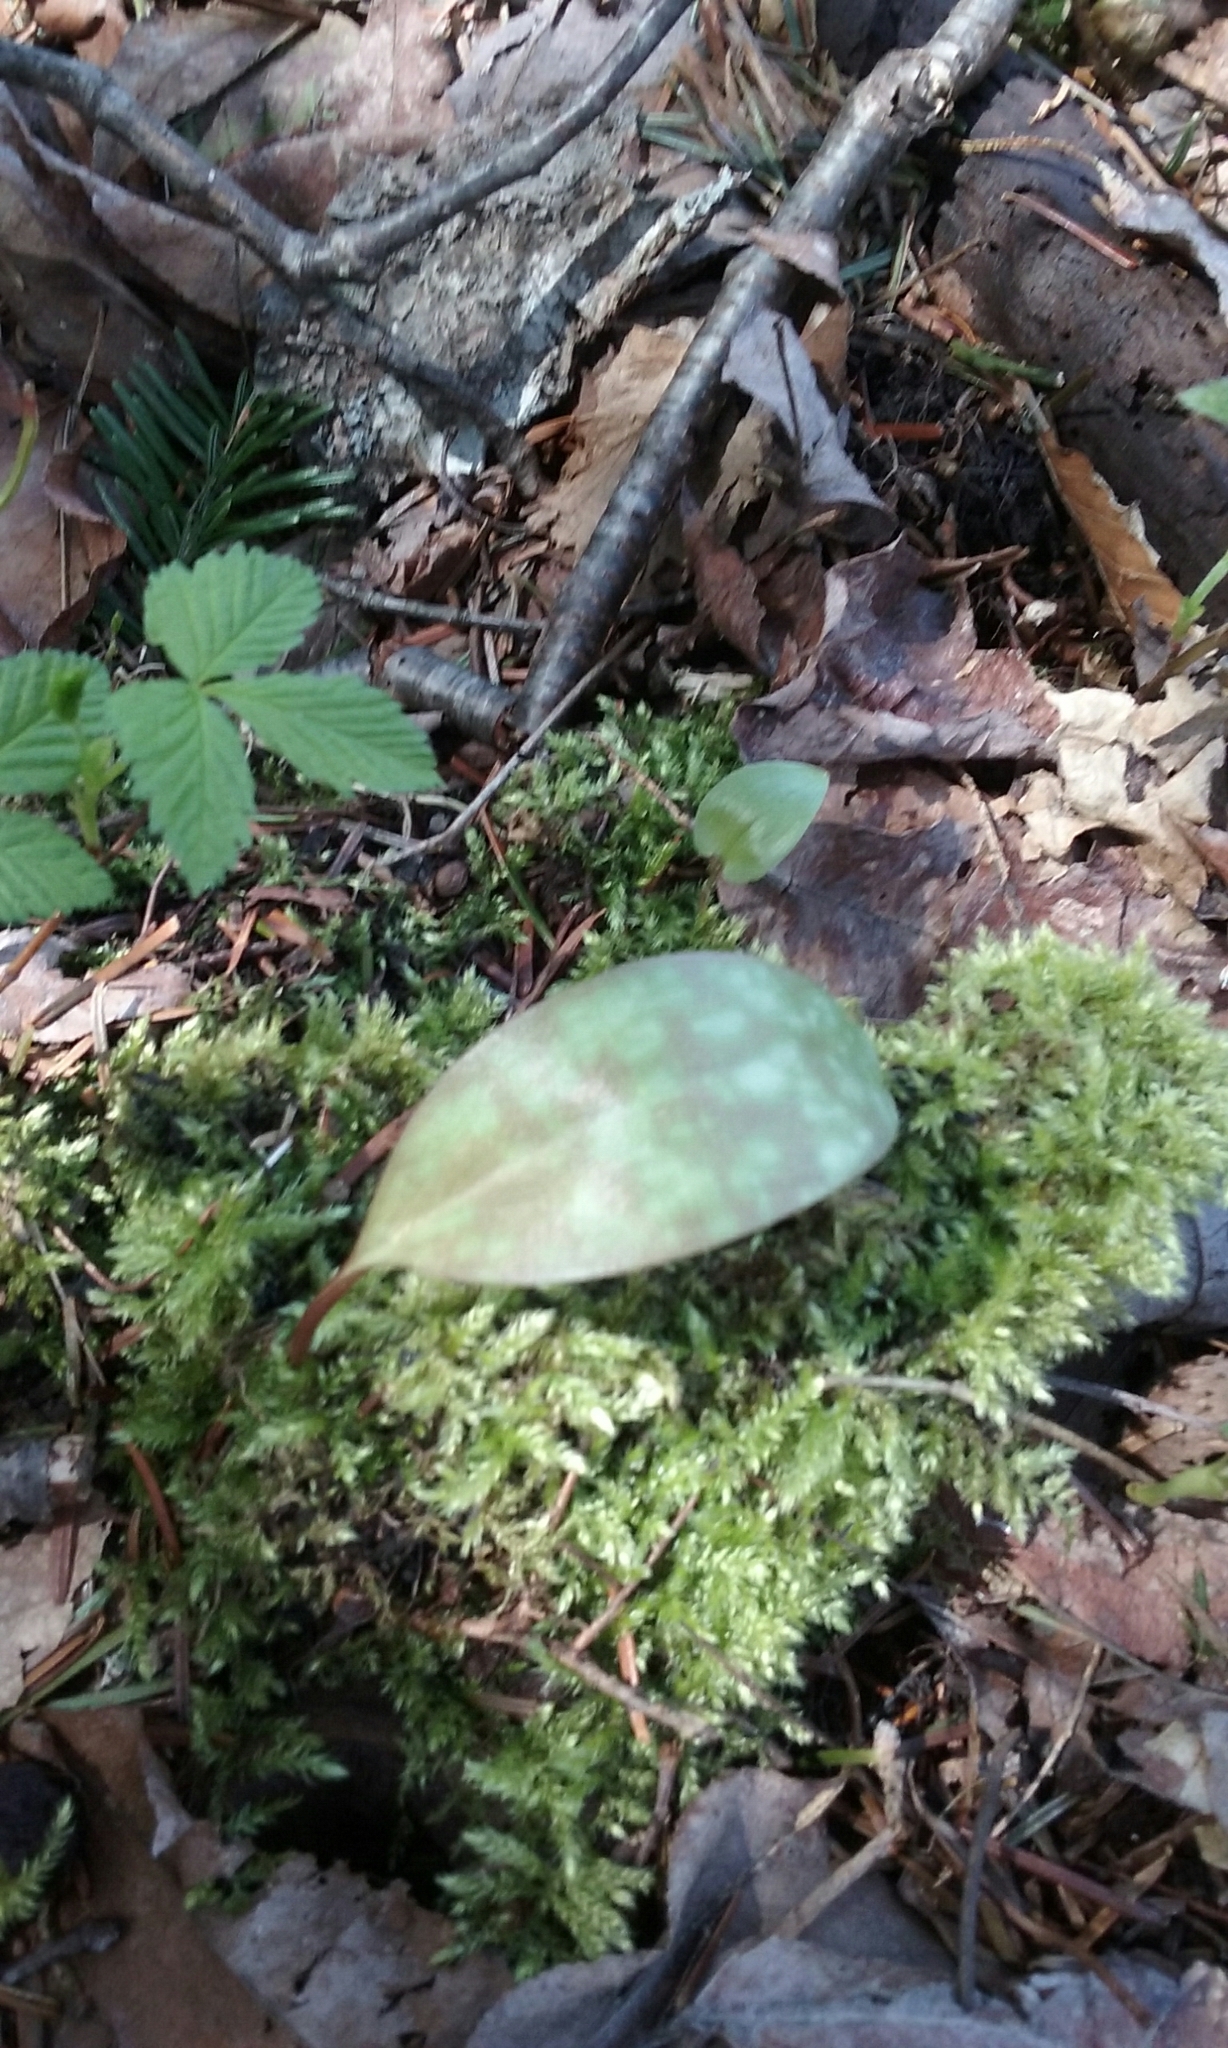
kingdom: Plantae
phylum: Tracheophyta
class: Liliopsida
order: Liliales
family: Liliaceae
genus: Erythronium
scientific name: Erythronium americanum
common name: Yellow adder's-tongue
